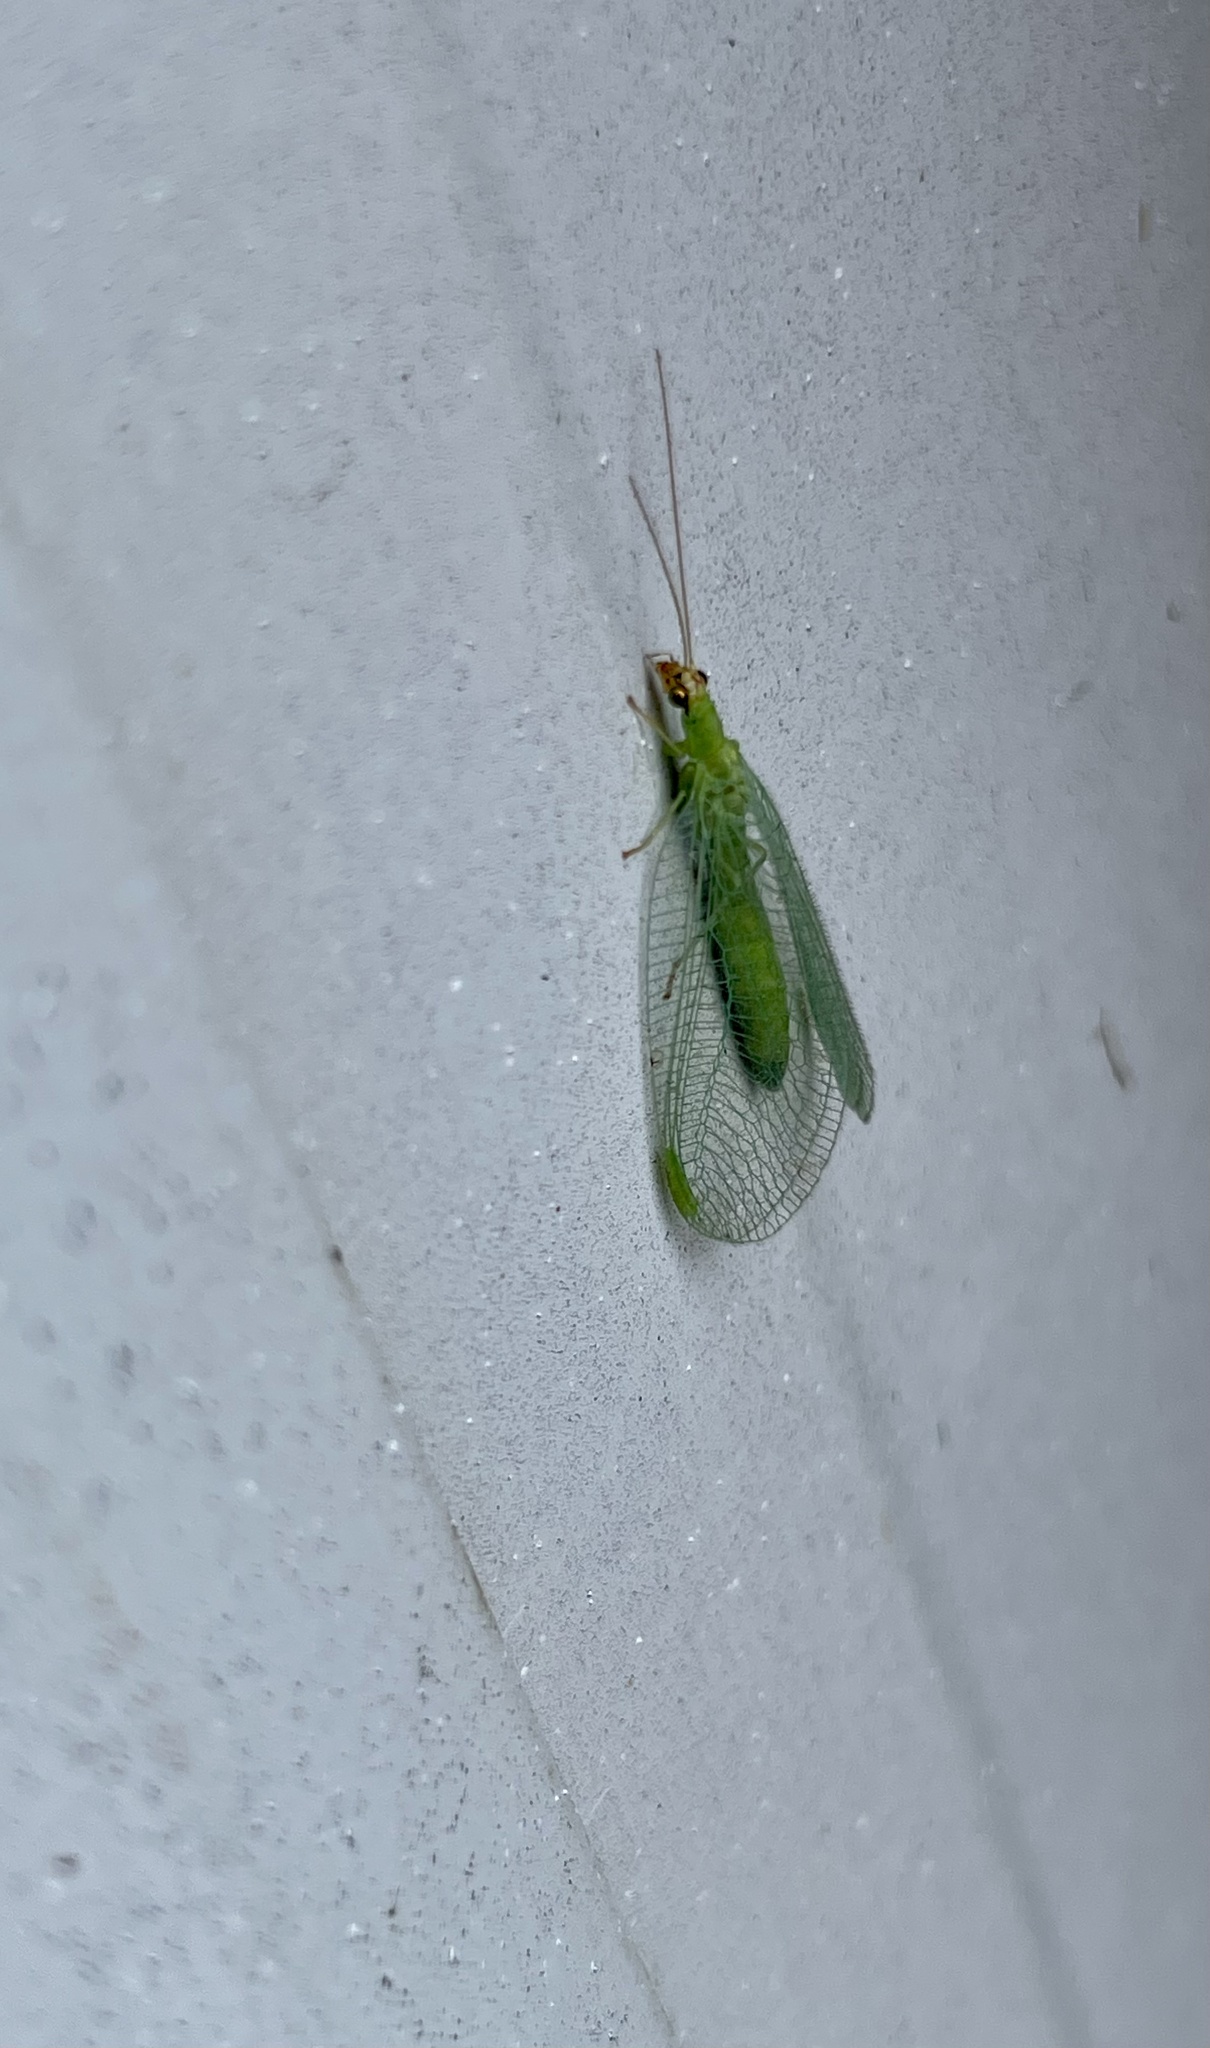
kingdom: Animalia
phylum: Arthropoda
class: Insecta
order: Neuroptera
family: Chrysopidae
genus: Chrysopa
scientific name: Chrysopa oculata
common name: Golden-eyed lacewing
